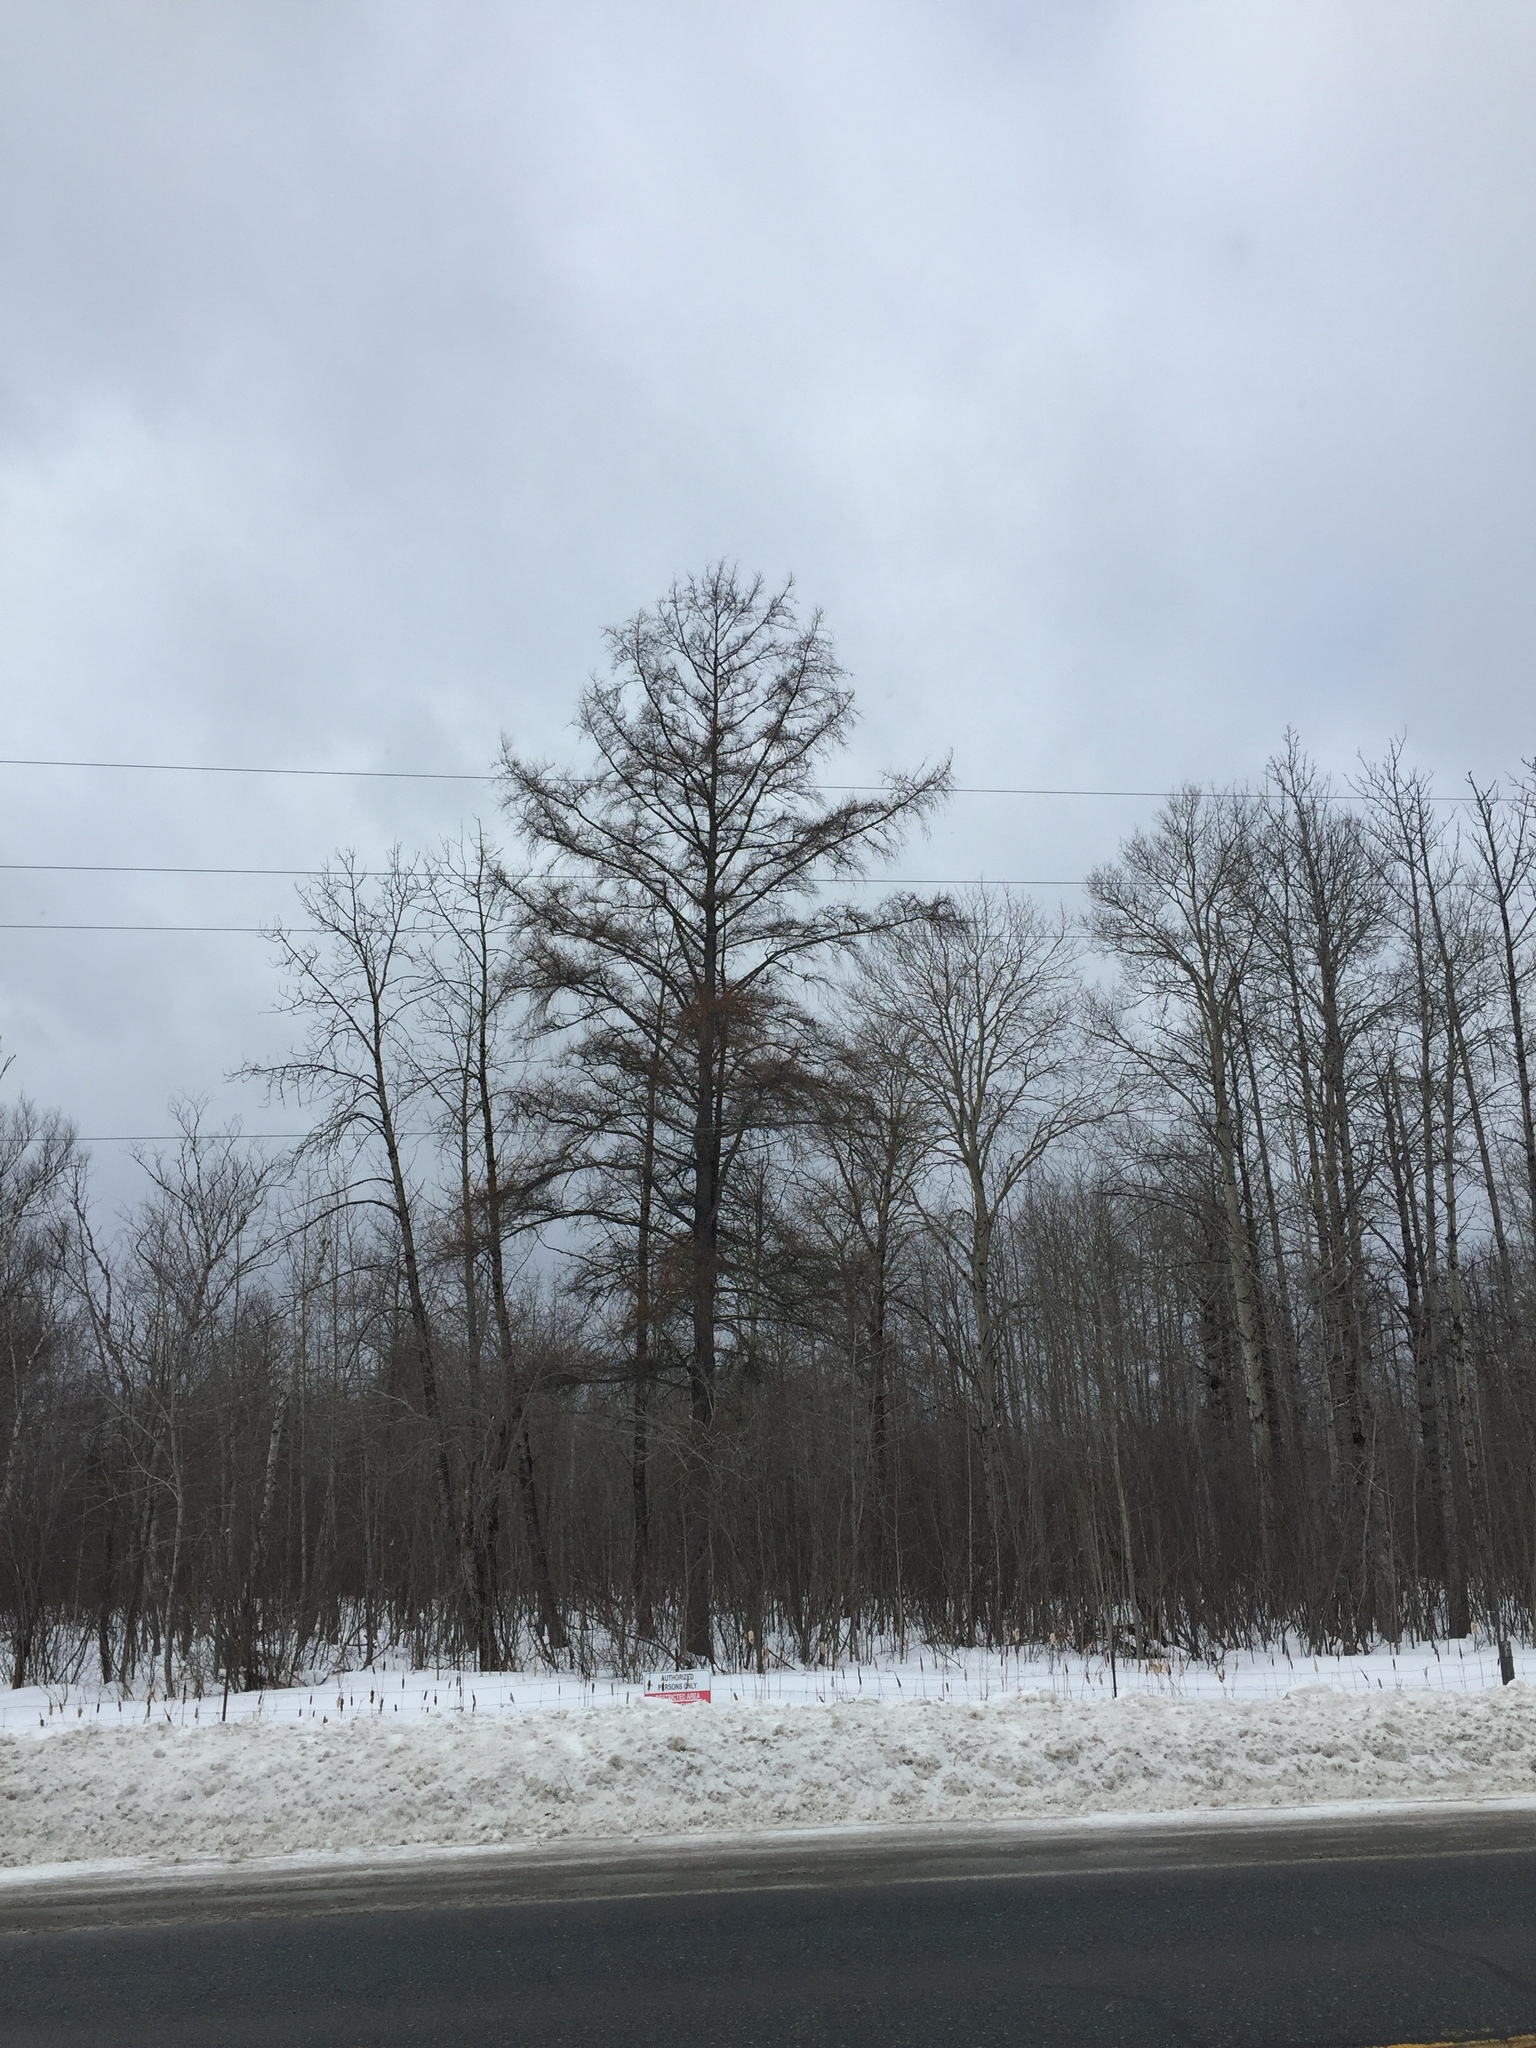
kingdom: Plantae
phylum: Tracheophyta
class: Pinopsida
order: Pinales
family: Pinaceae
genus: Larix
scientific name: Larix laricina
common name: American larch
